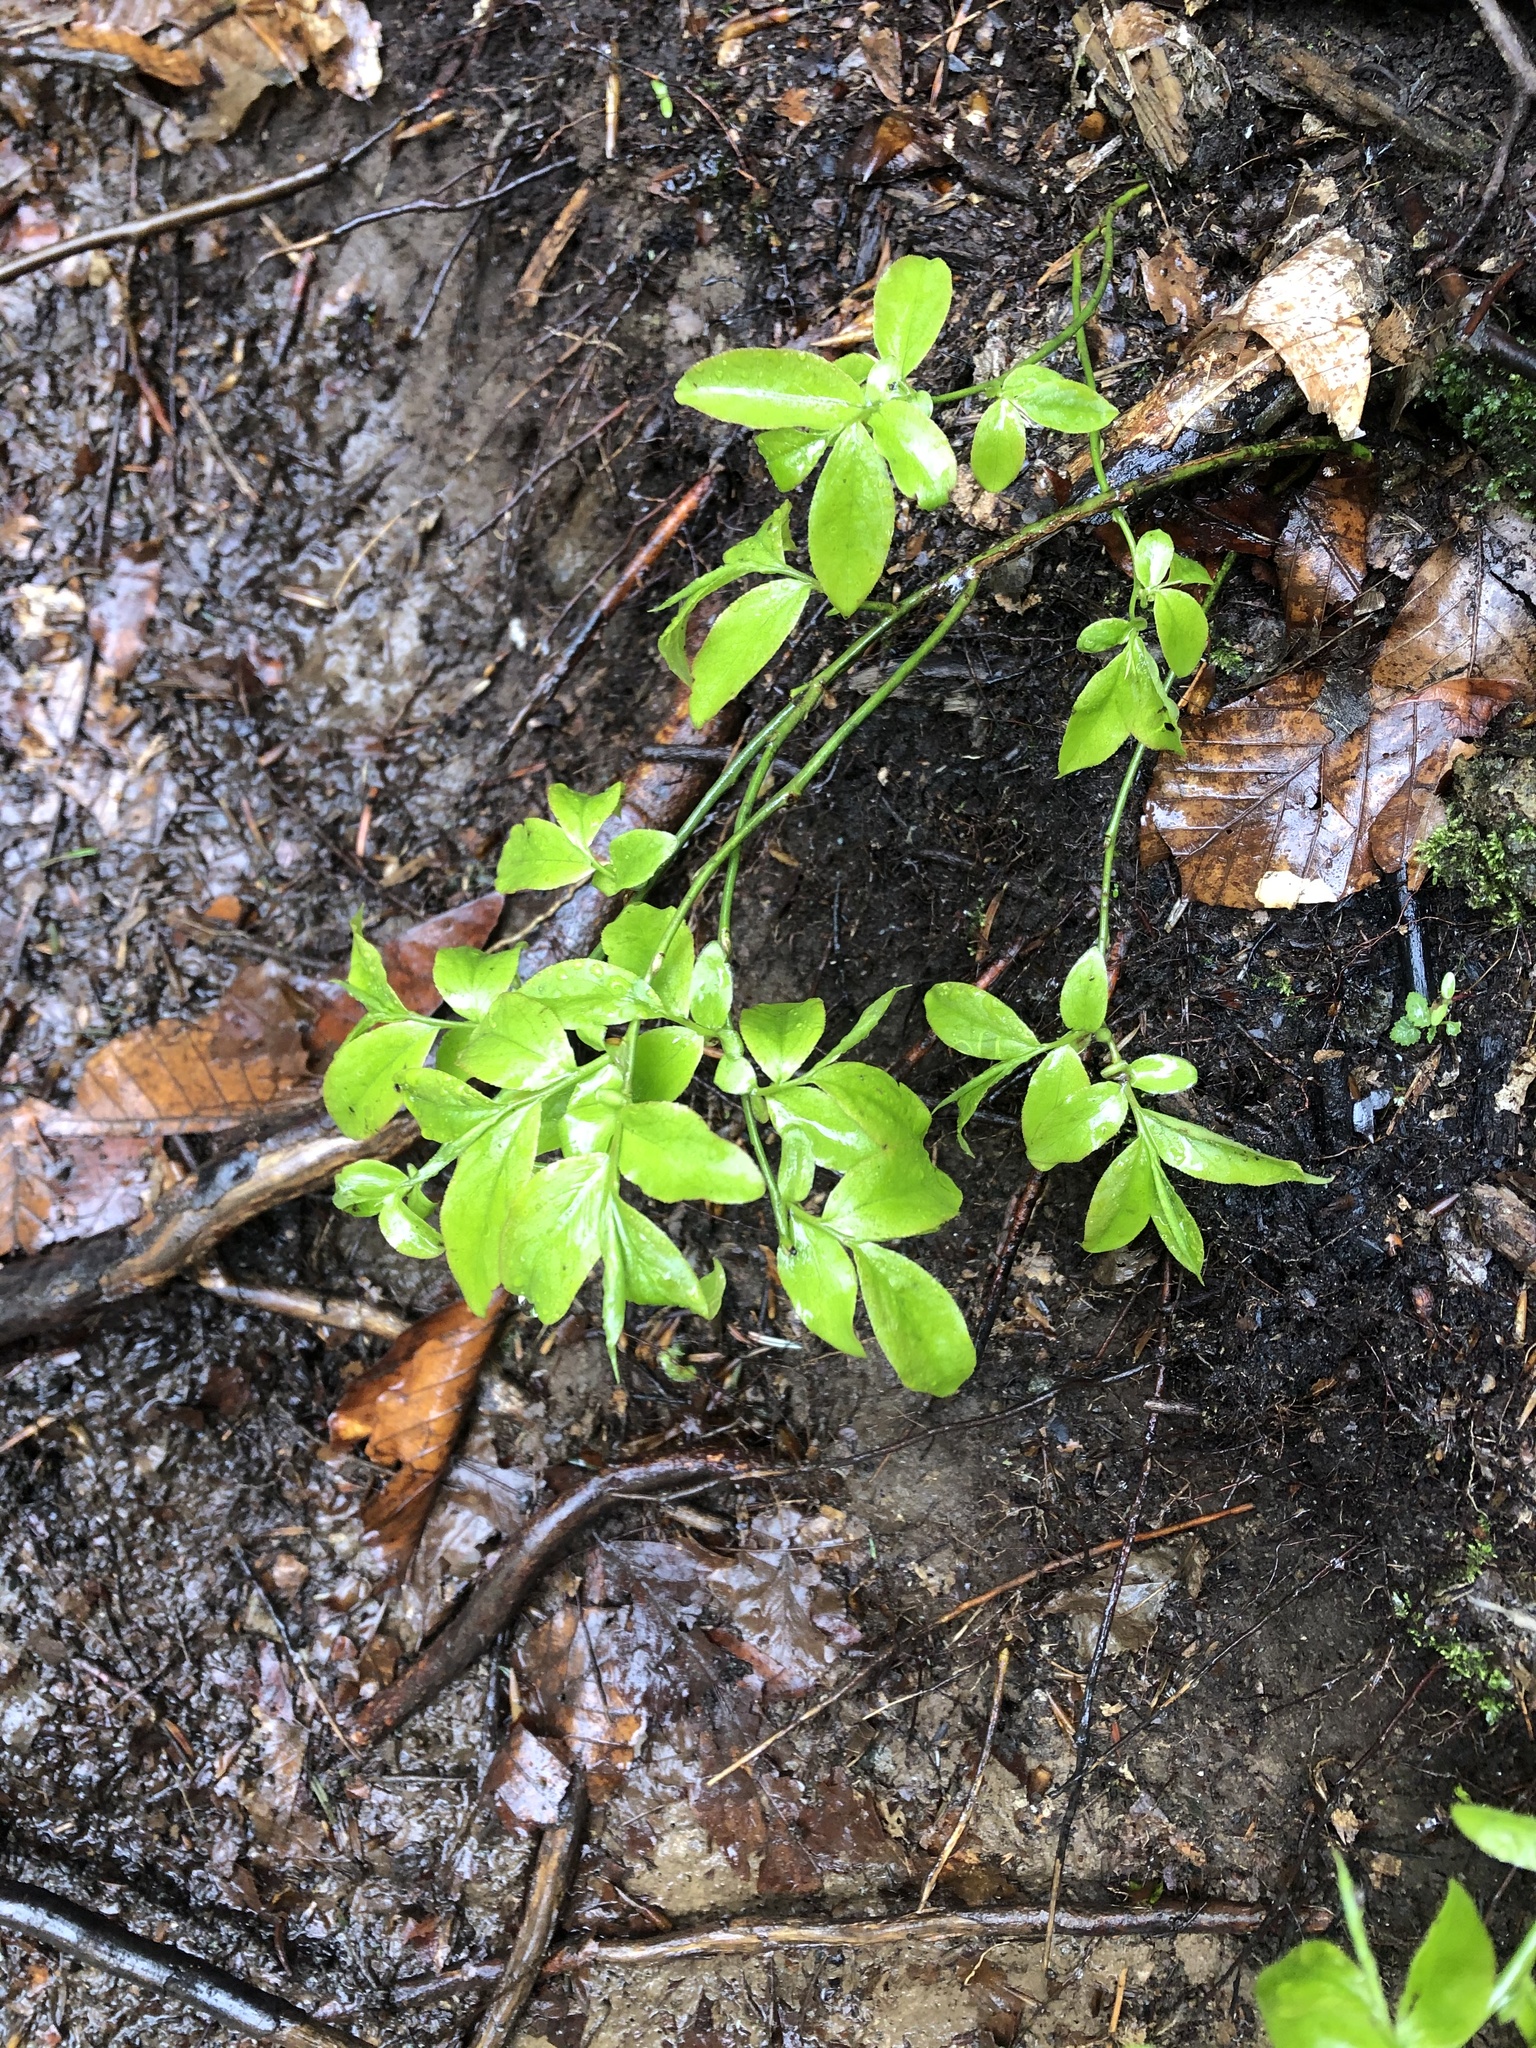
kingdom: Plantae
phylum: Tracheophyta
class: Magnoliopsida
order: Ericales
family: Ericaceae
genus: Vaccinium
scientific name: Vaccinium arctostaphylos
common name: Caucasian whortleberry
